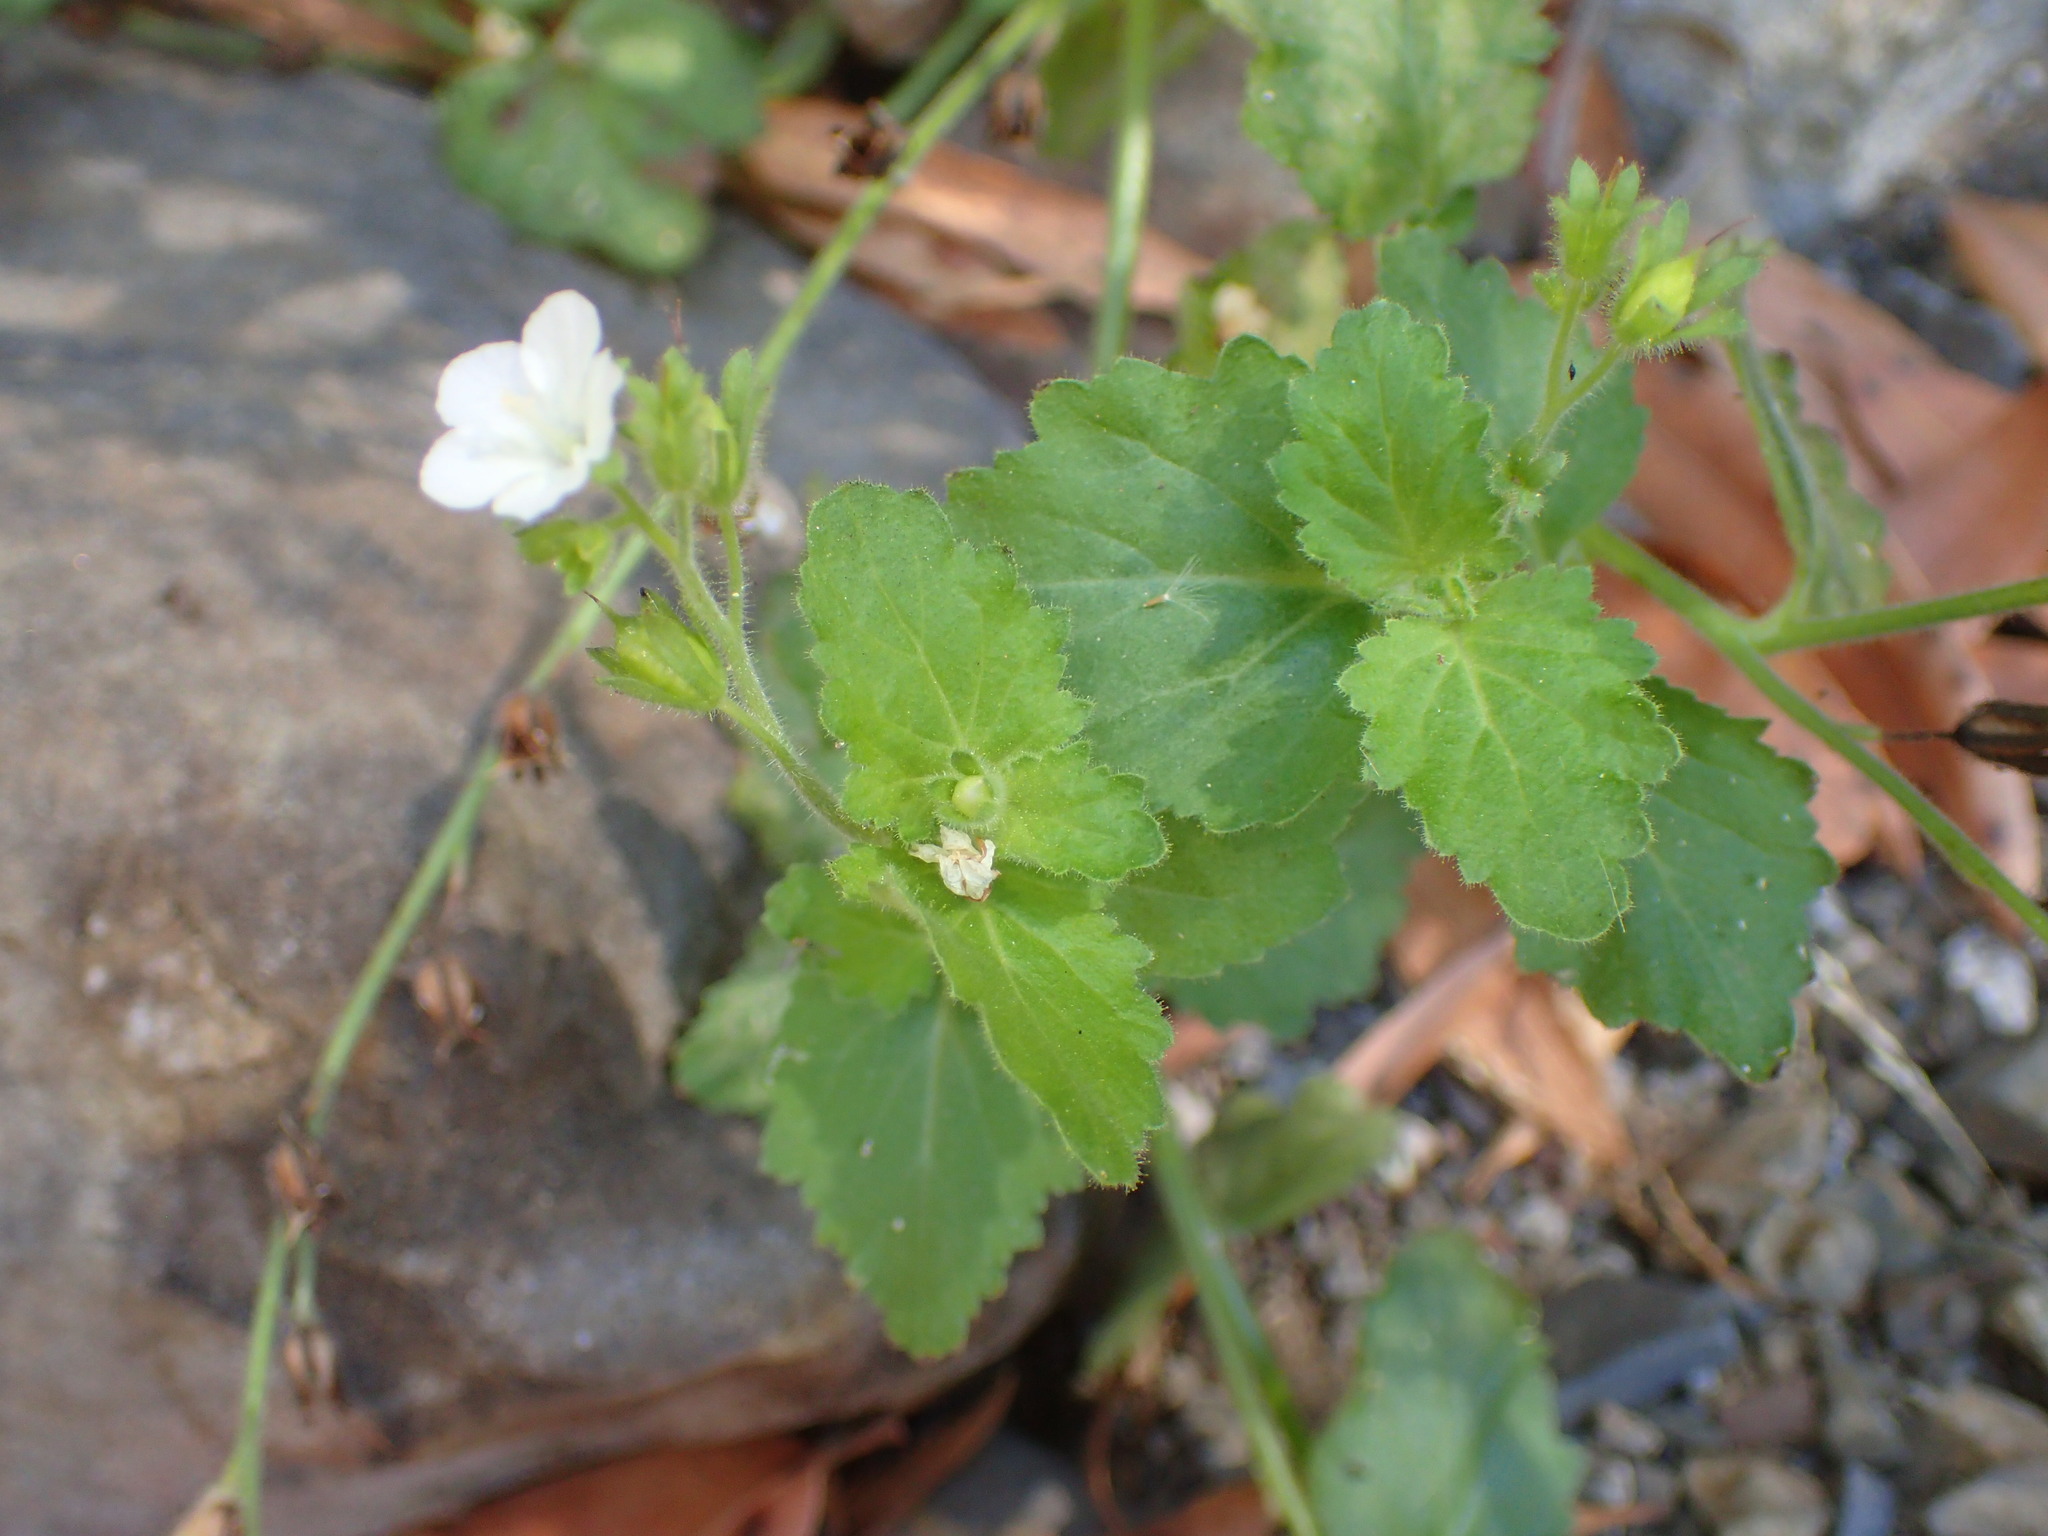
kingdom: Plantae
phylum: Tracheophyta
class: Magnoliopsida
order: Boraginales
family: Hydrophyllaceae
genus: Phacelia
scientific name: Phacelia viscida
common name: Sticky phacelia
